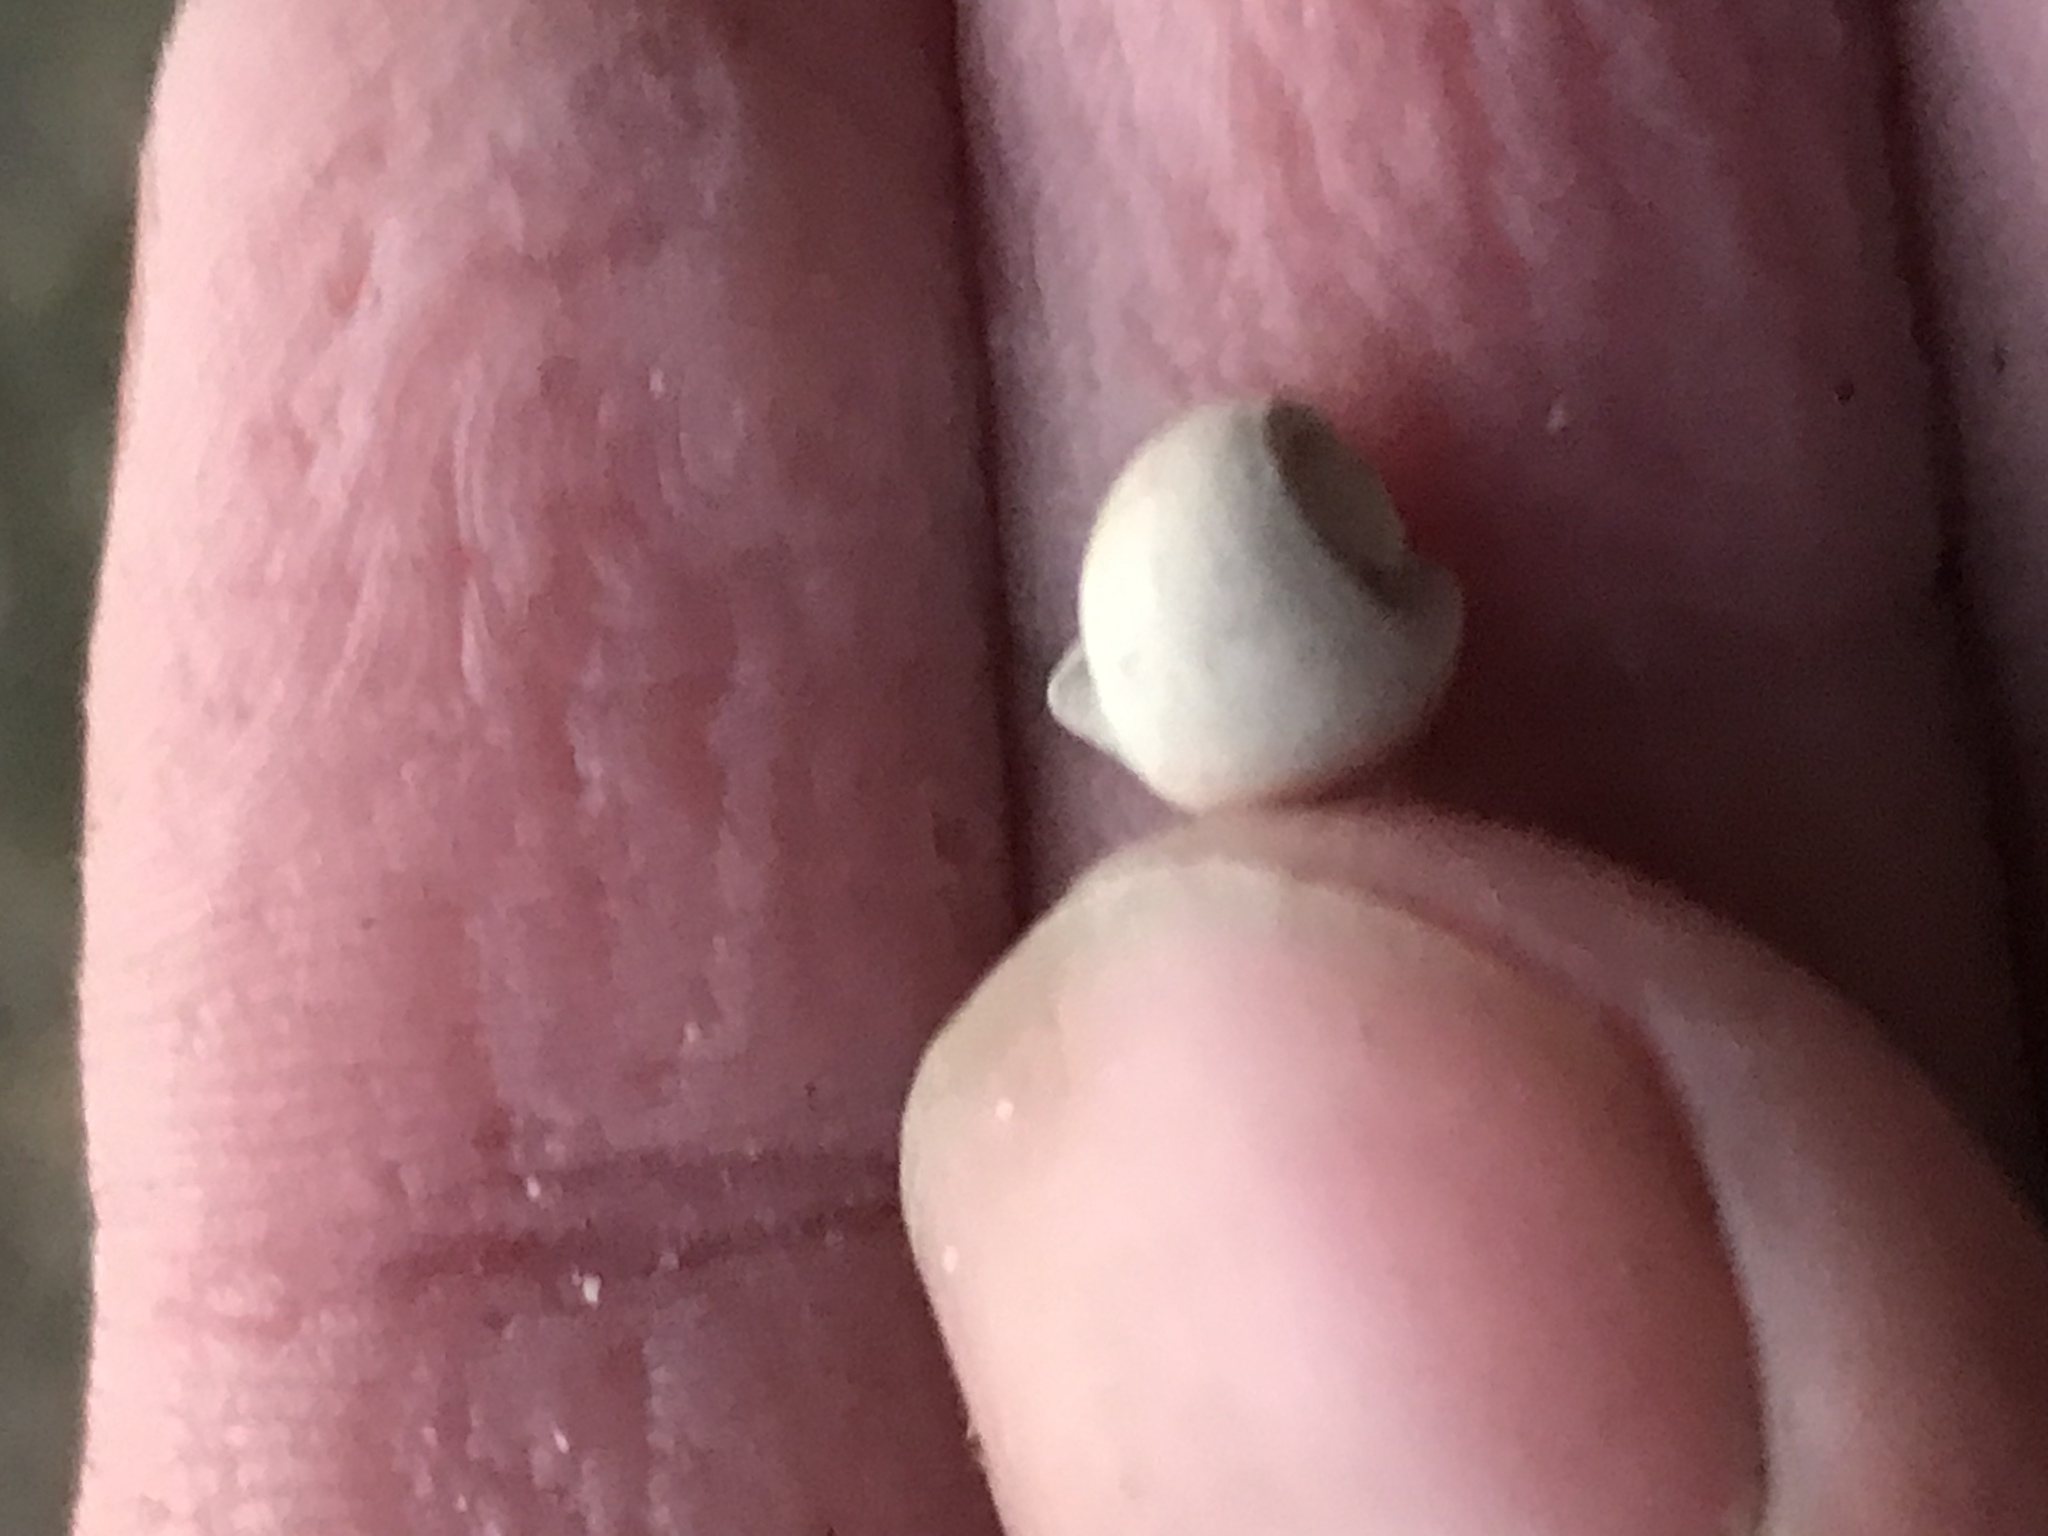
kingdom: Animalia
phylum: Mollusca
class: Gastropoda
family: Planorbidae
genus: Planorbella
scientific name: Planorbella duryi
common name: Seminole rams-horn
